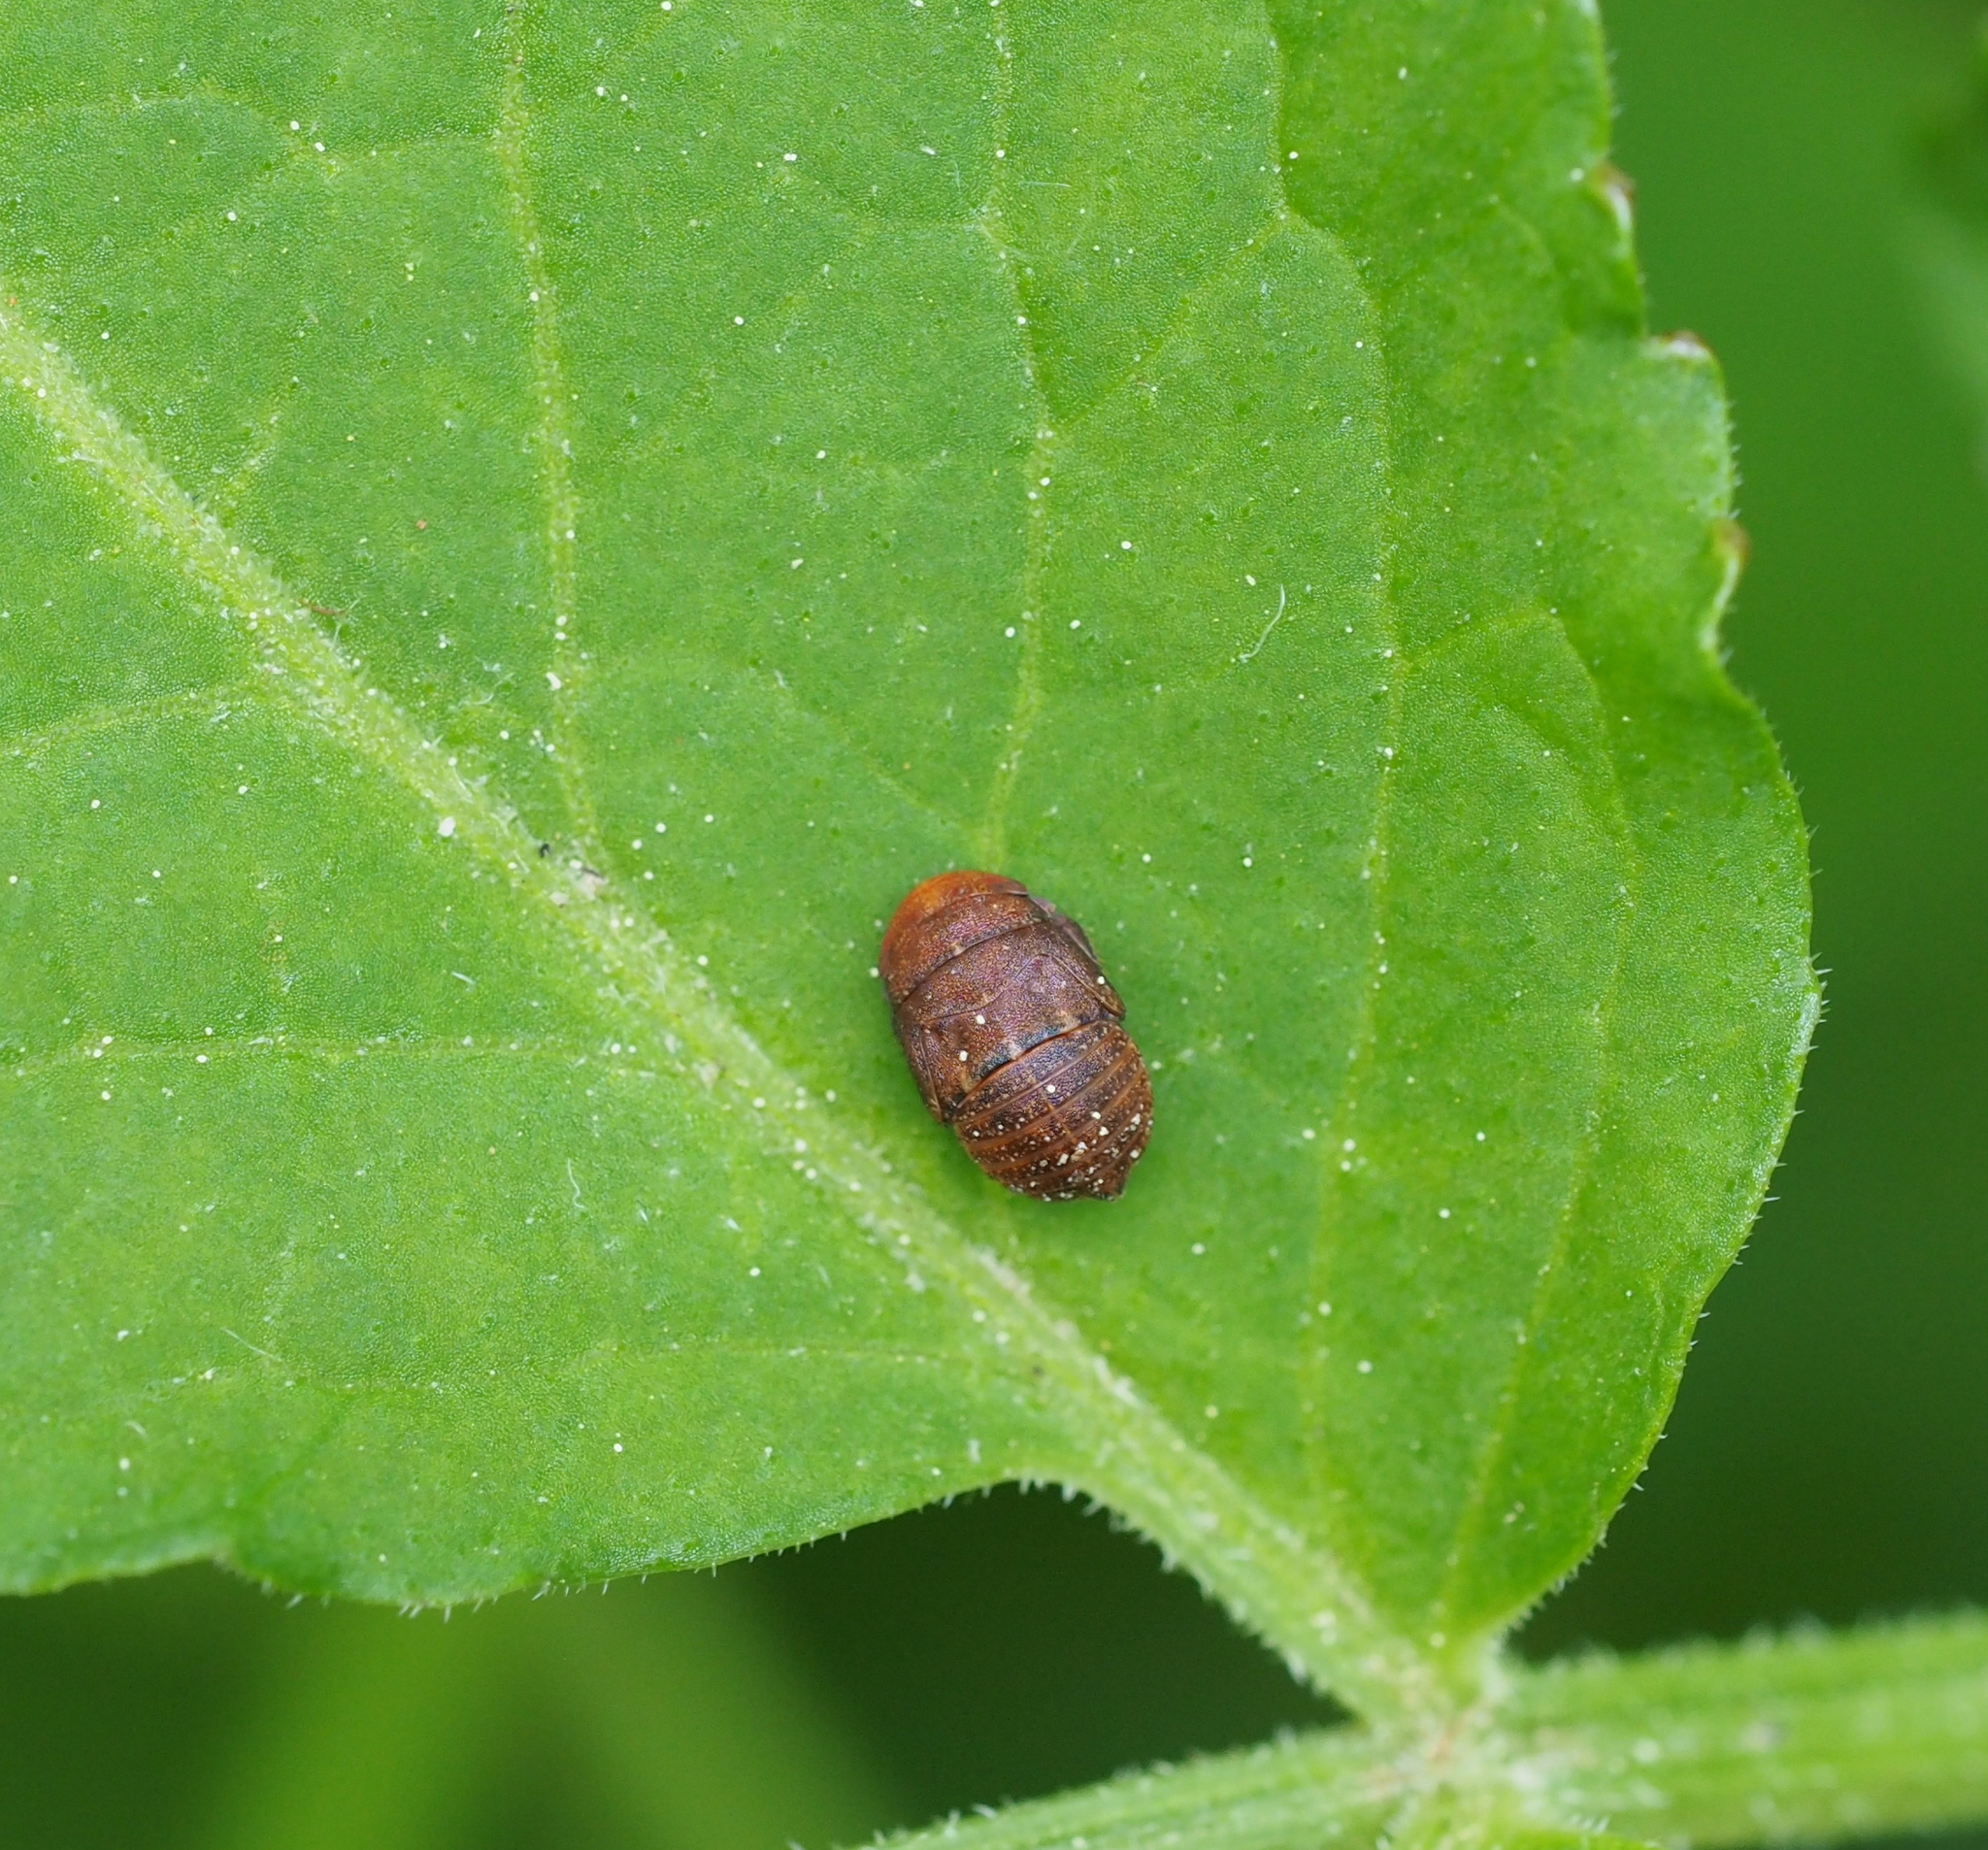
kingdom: Animalia
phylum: Arthropoda
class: Insecta
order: Hemiptera
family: Cicadellidae
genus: Penthimia
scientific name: Penthimia nigra
